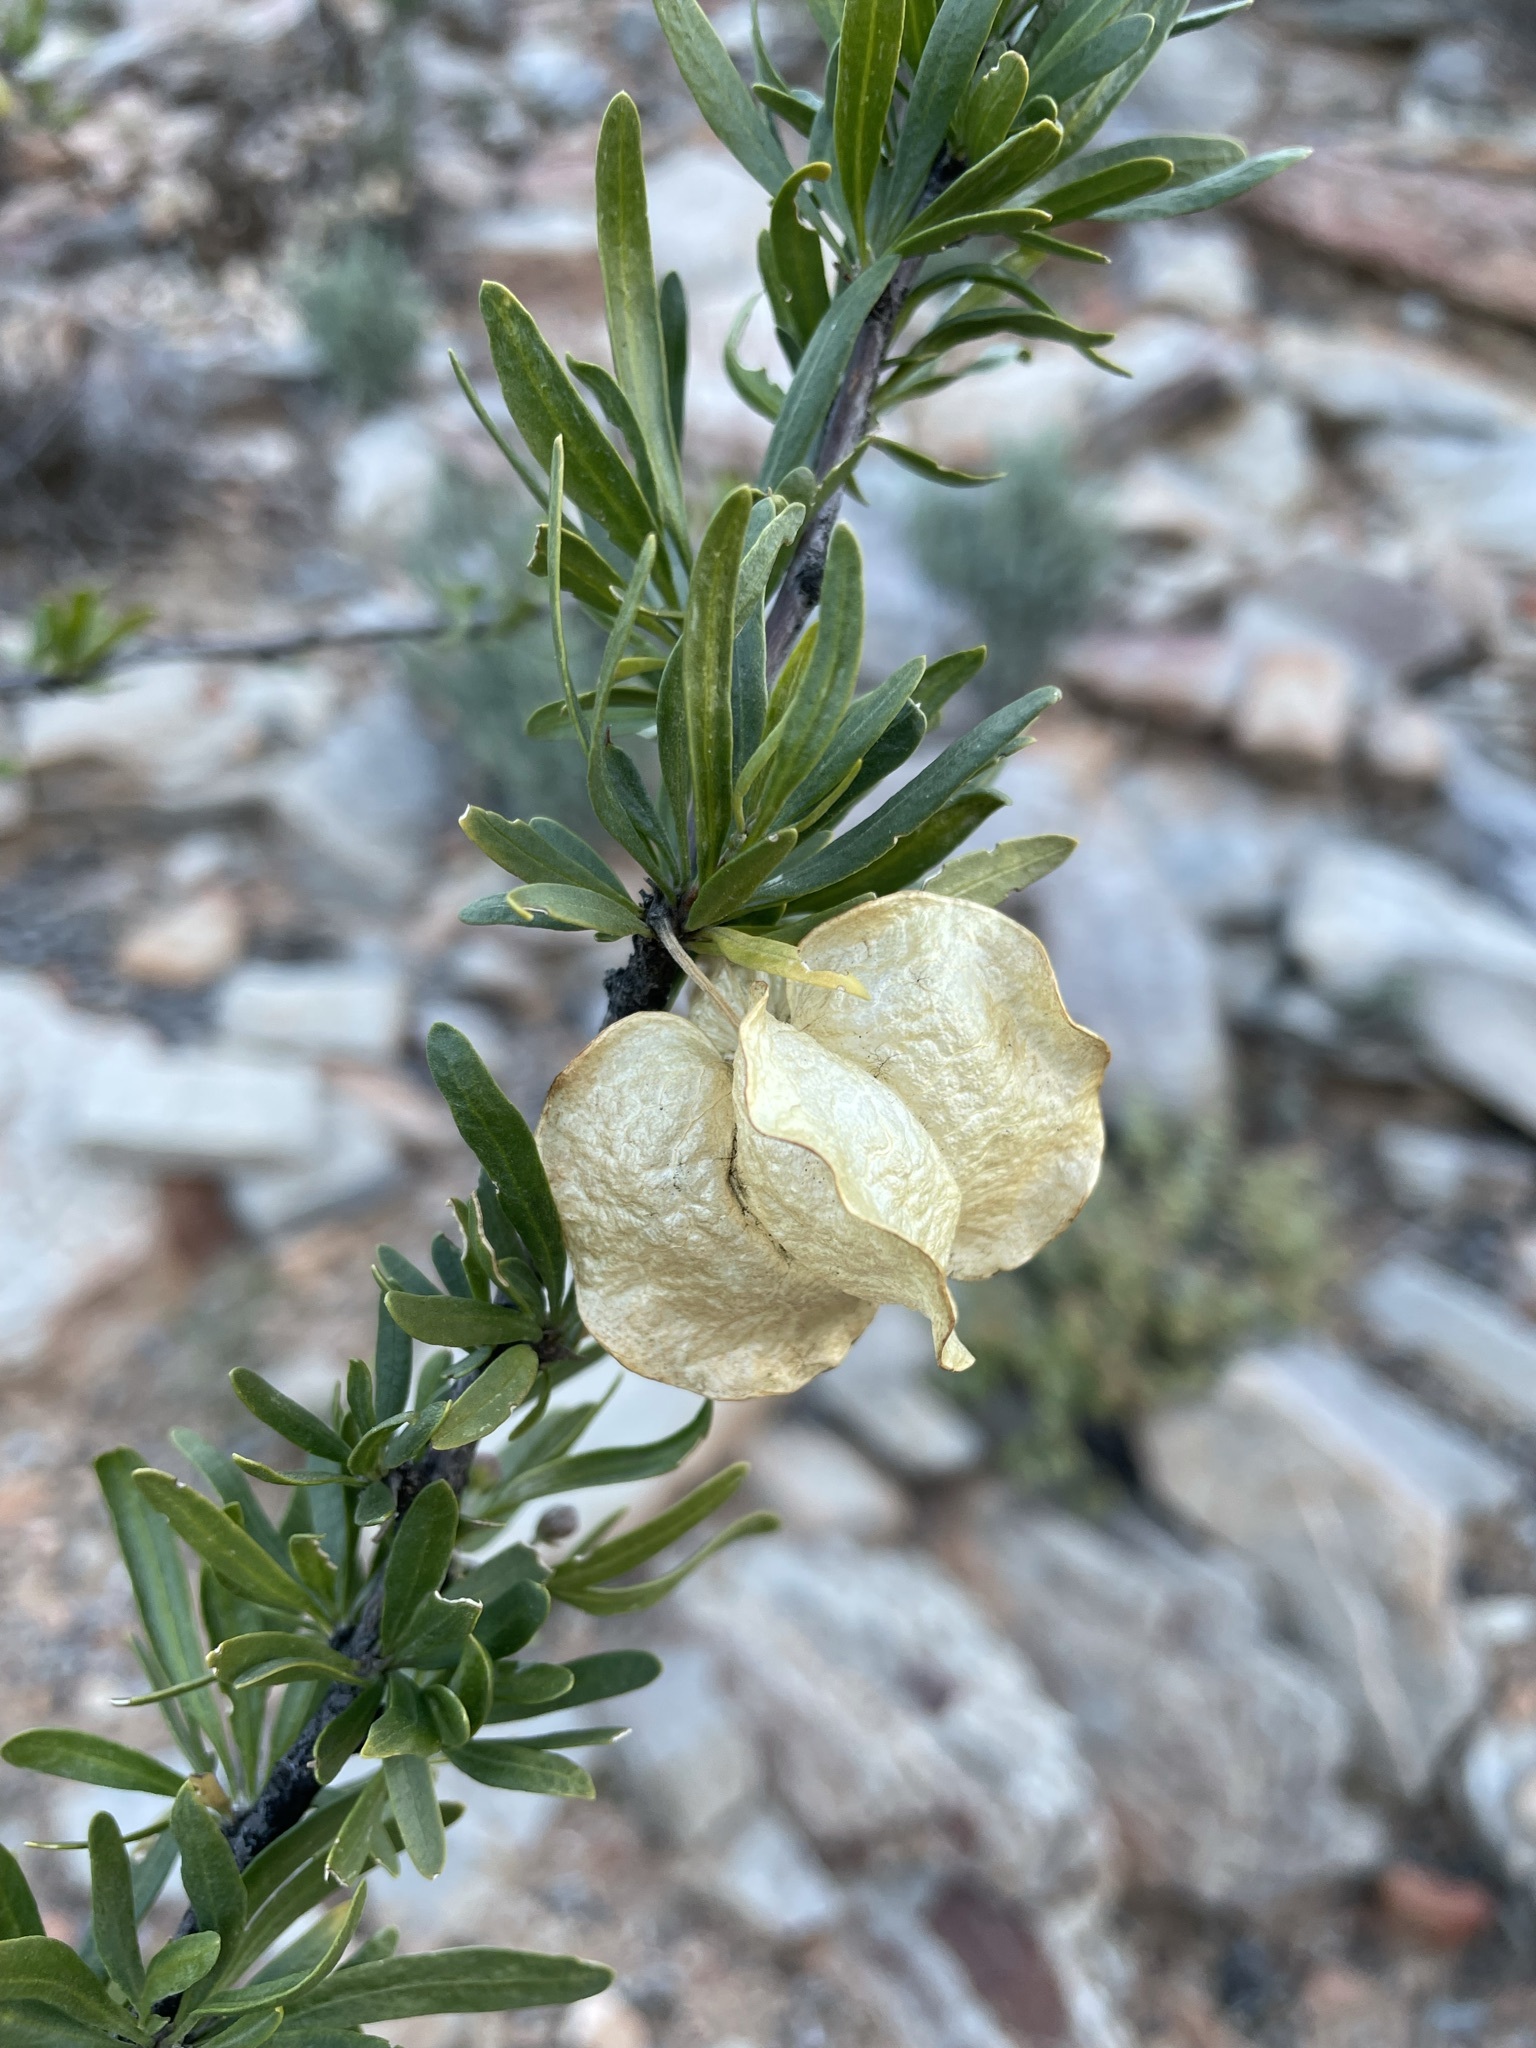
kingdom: Plantae
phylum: Tracheophyta
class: Magnoliopsida
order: Sapindales
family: Meliaceae
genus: Nymania
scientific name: Nymania capensis
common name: Chinese lantern tree
